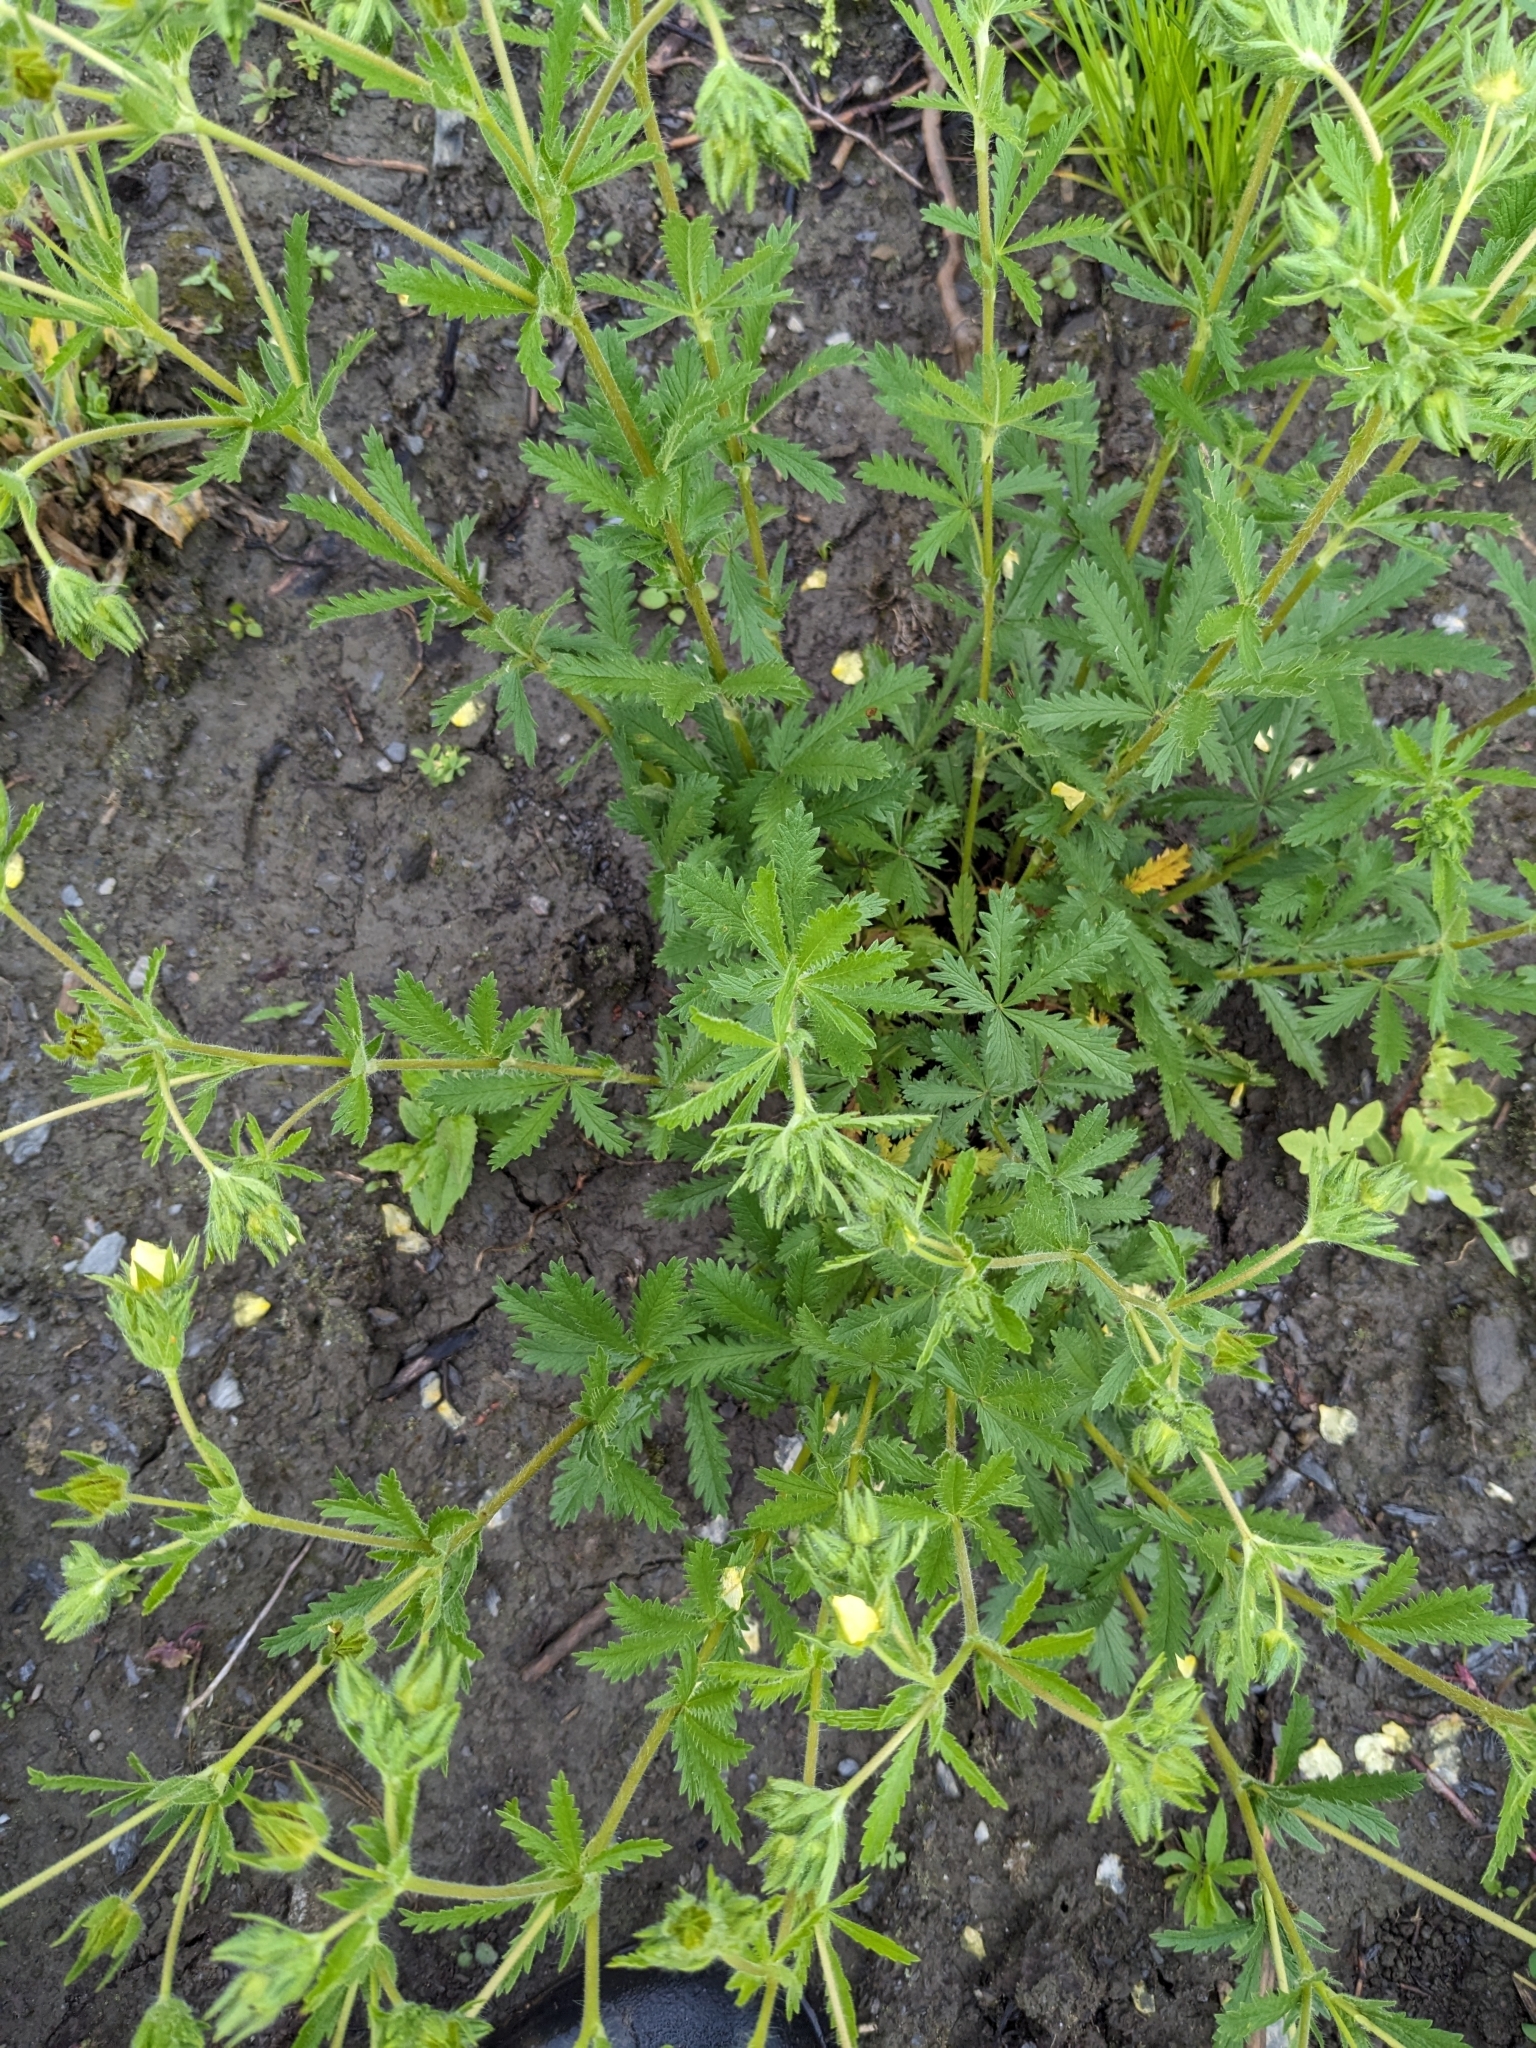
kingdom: Plantae
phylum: Tracheophyta
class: Magnoliopsida
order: Rosales
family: Rosaceae
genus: Potentilla
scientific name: Potentilla recta
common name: Sulphur cinquefoil
